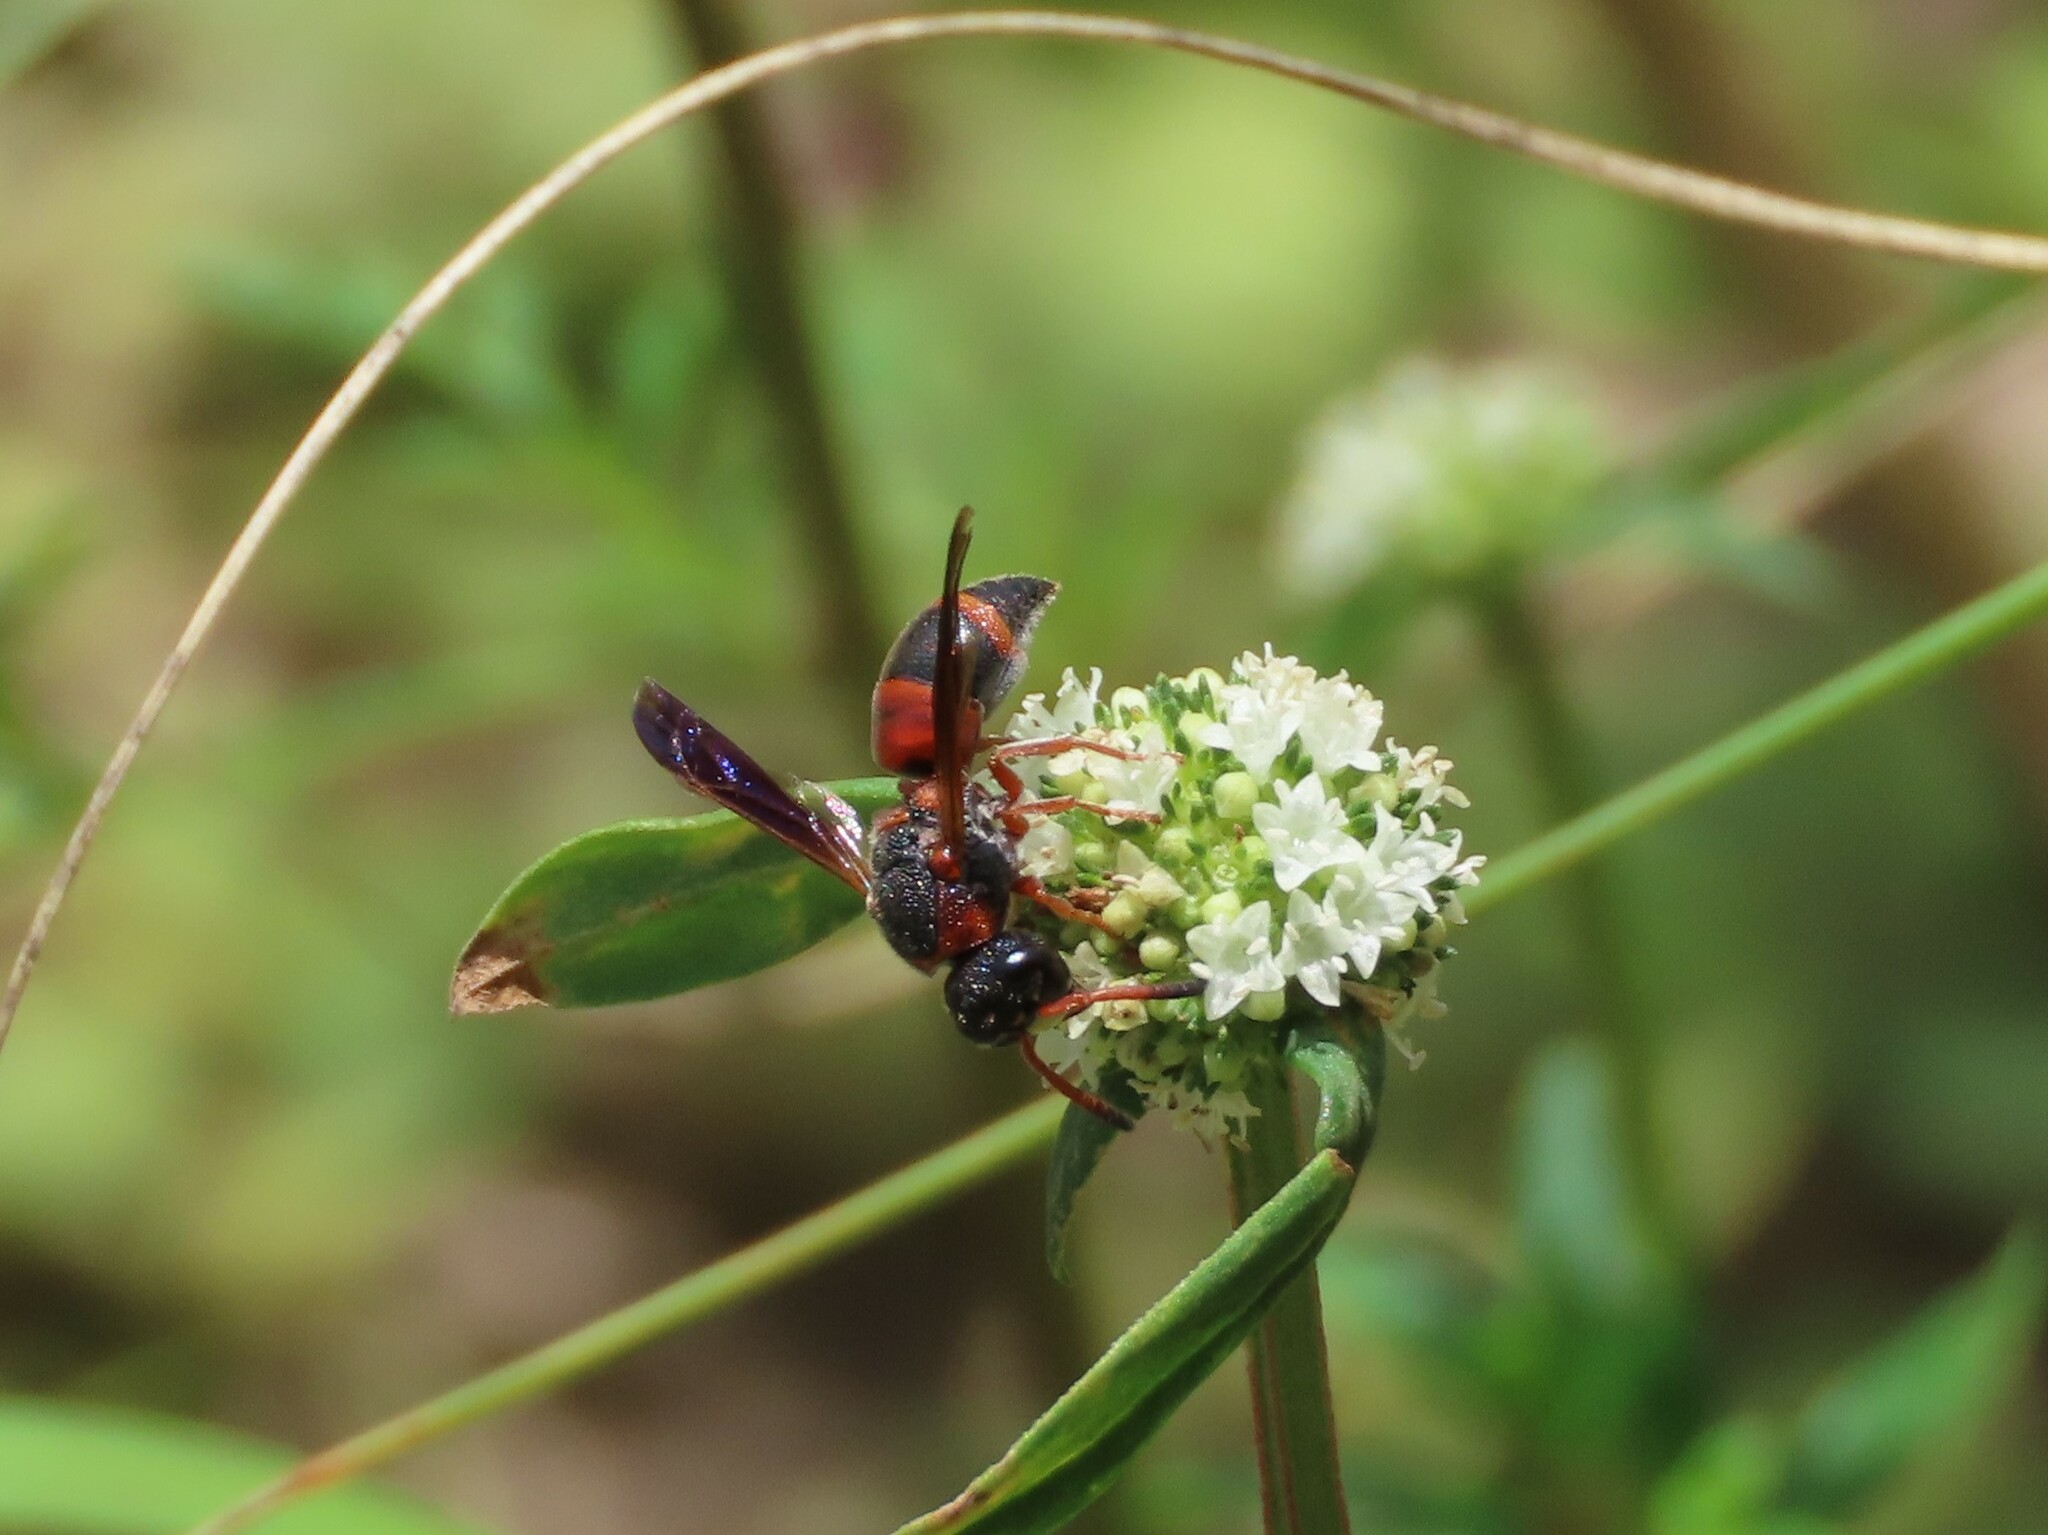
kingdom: Animalia
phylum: Arthropoda
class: Insecta
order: Hymenoptera
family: Eumenidae
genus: Pachodynerus
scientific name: Pachodynerus erynnis
